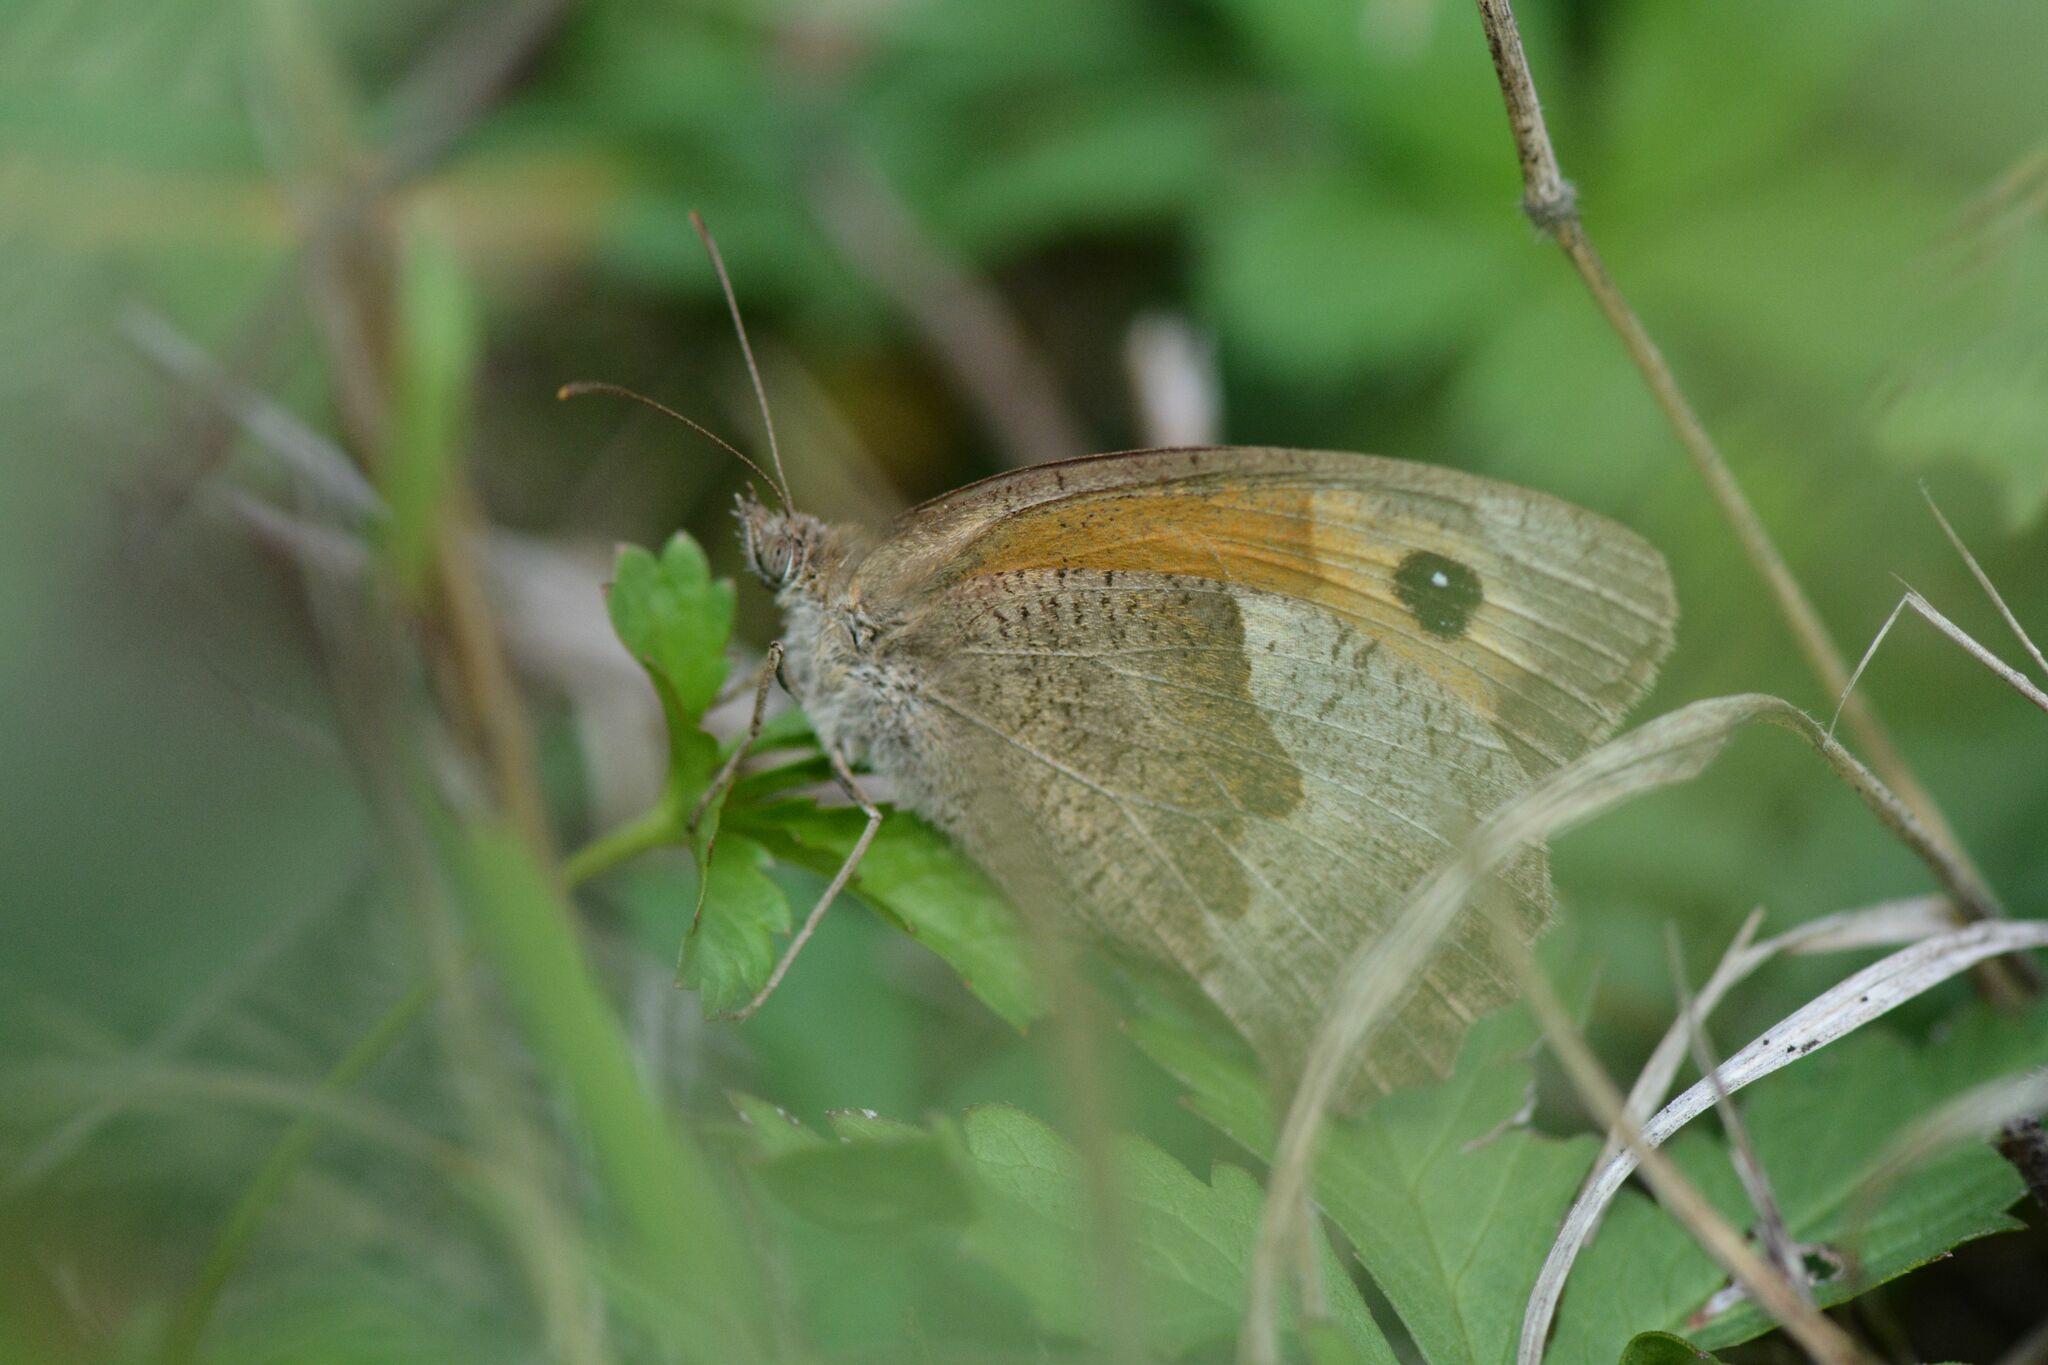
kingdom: Animalia
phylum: Arthropoda
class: Insecta
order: Lepidoptera
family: Nymphalidae
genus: Maniola
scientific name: Maniola jurtina
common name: Meadow brown
